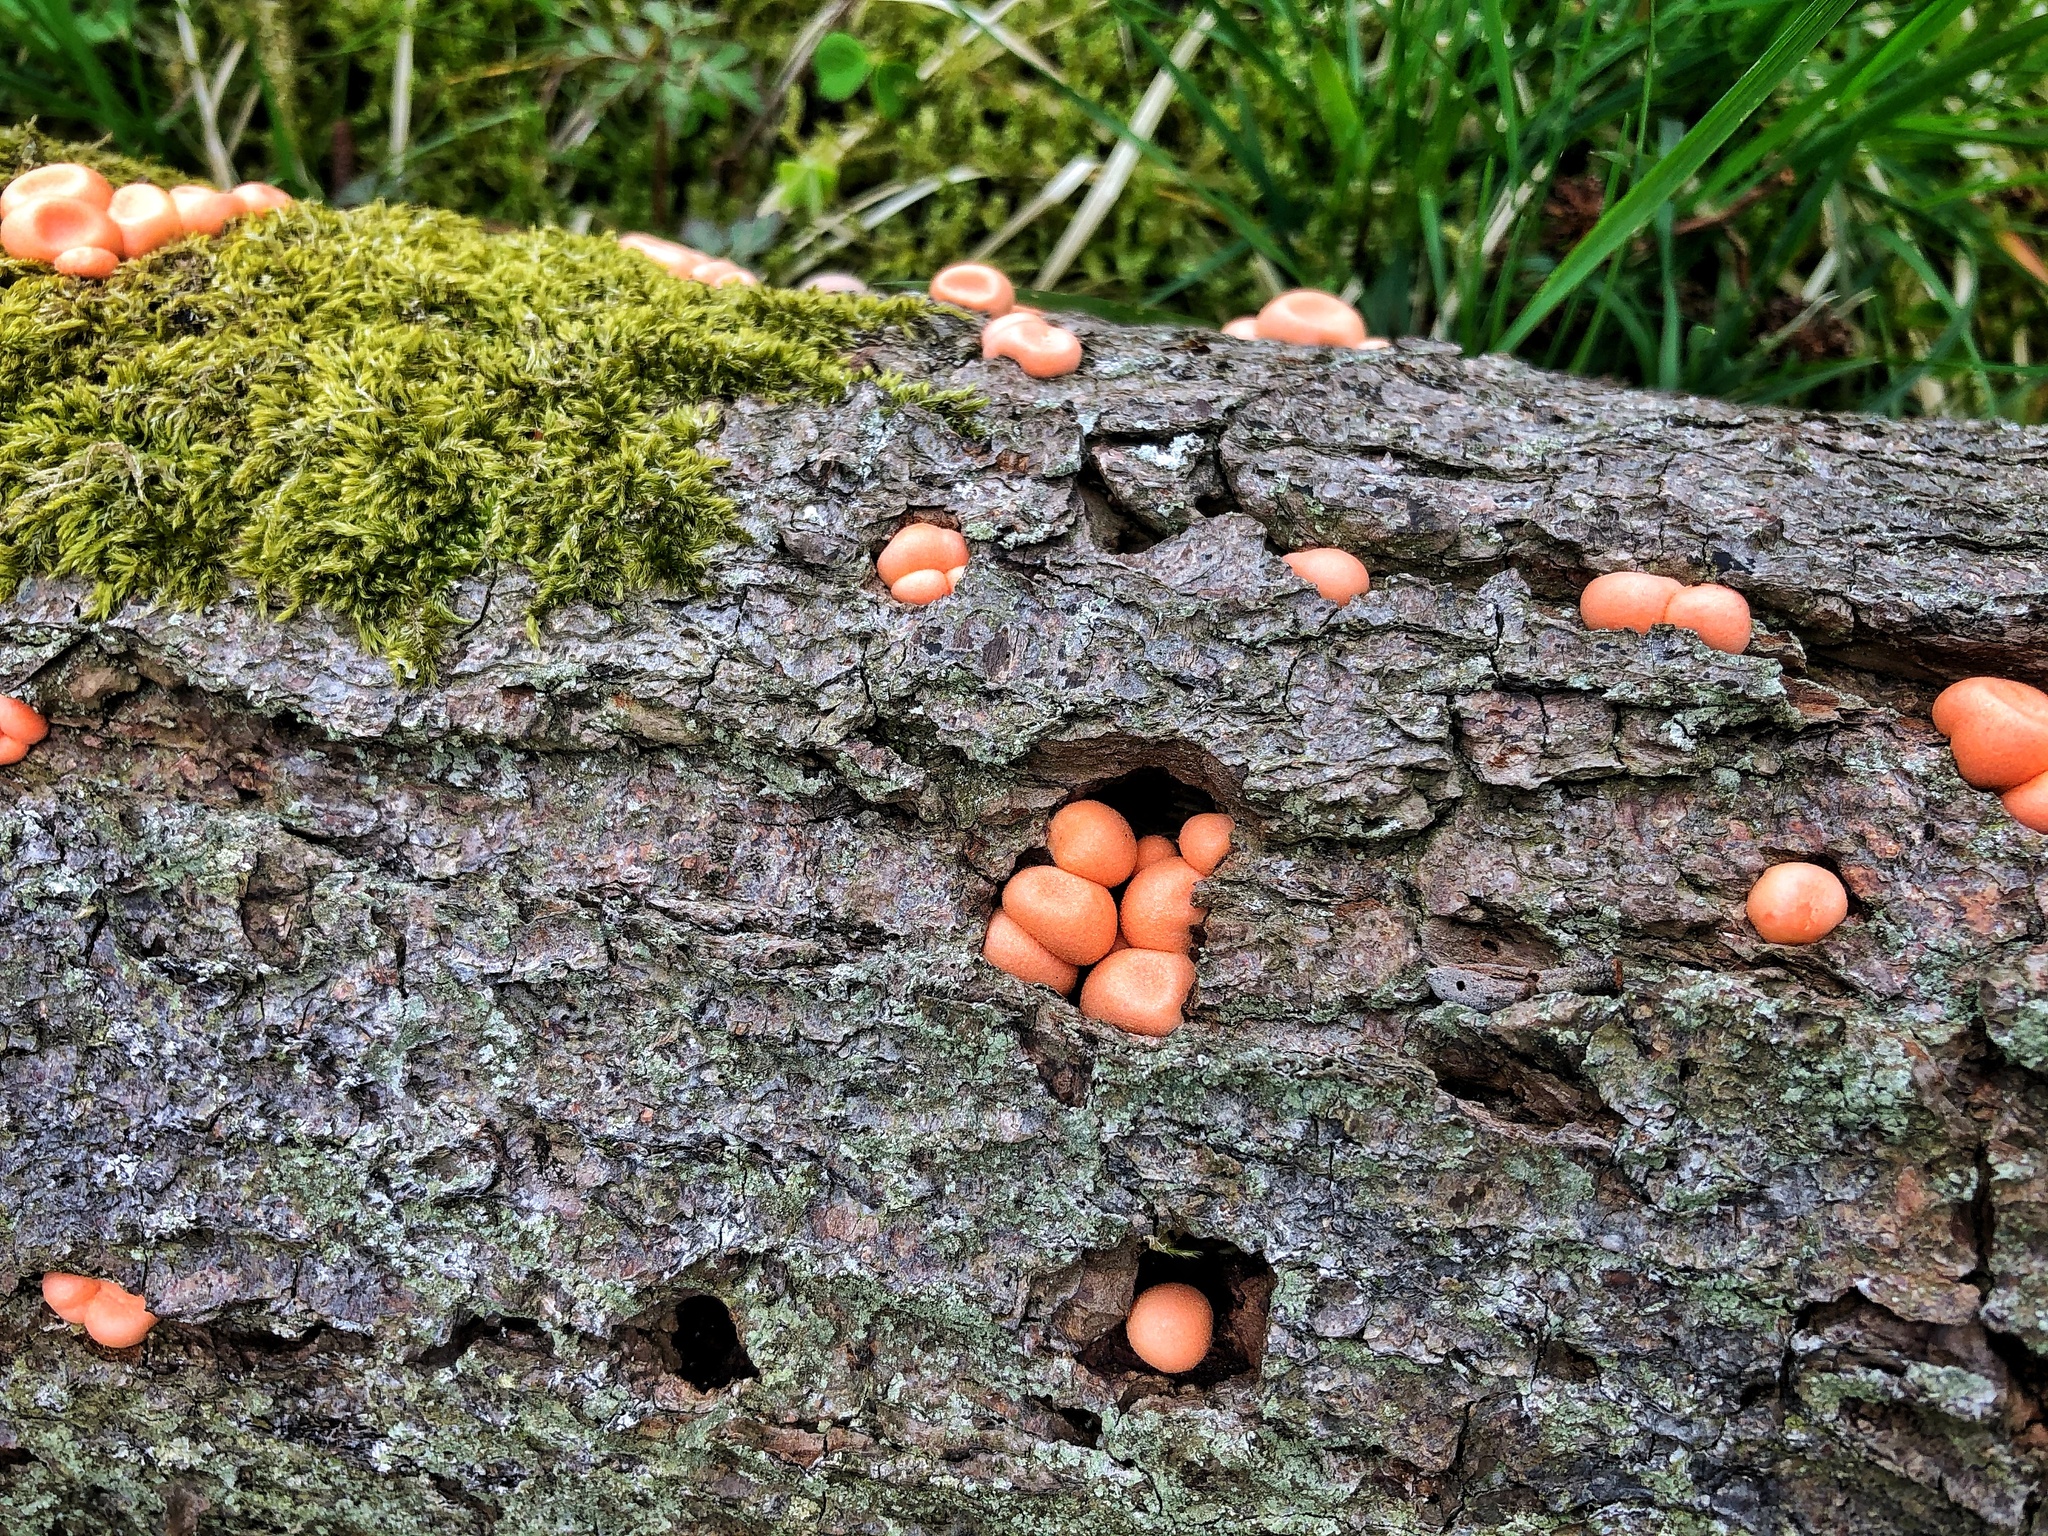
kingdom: Protozoa
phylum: Mycetozoa
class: Myxomycetes
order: Cribrariales
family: Tubiferaceae
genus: Lycogala
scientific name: Lycogala epidendrum
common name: Wolf's milk
